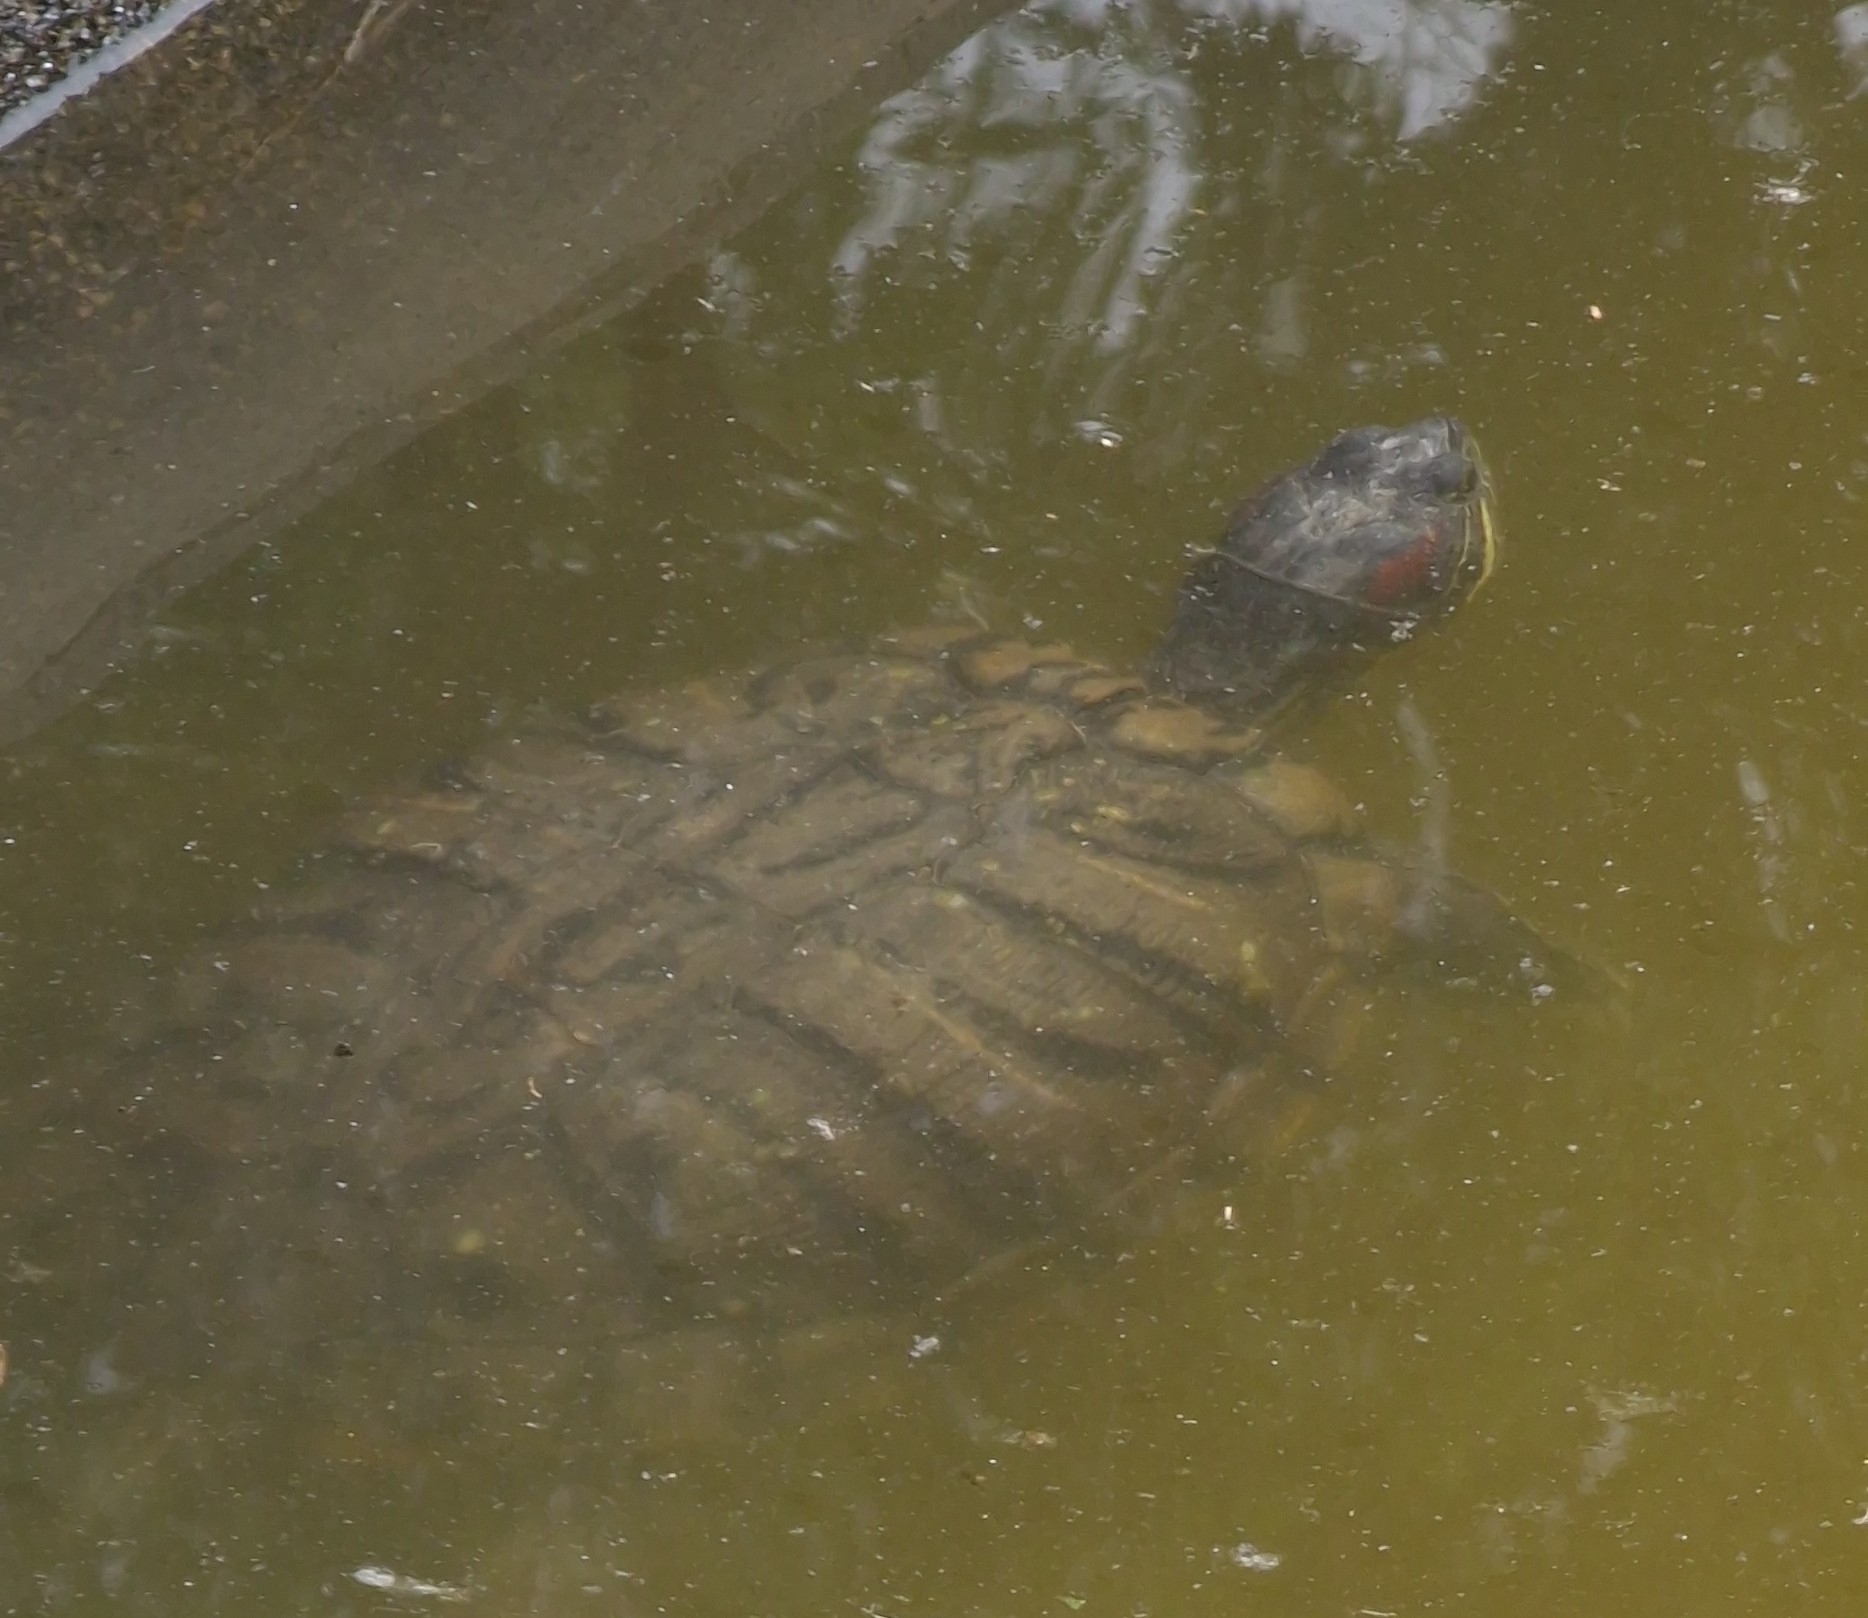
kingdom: Animalia
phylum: Chordata
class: Testudines
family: Emydidae
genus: Trachemys
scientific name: Trachemys scripta
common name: Slider
